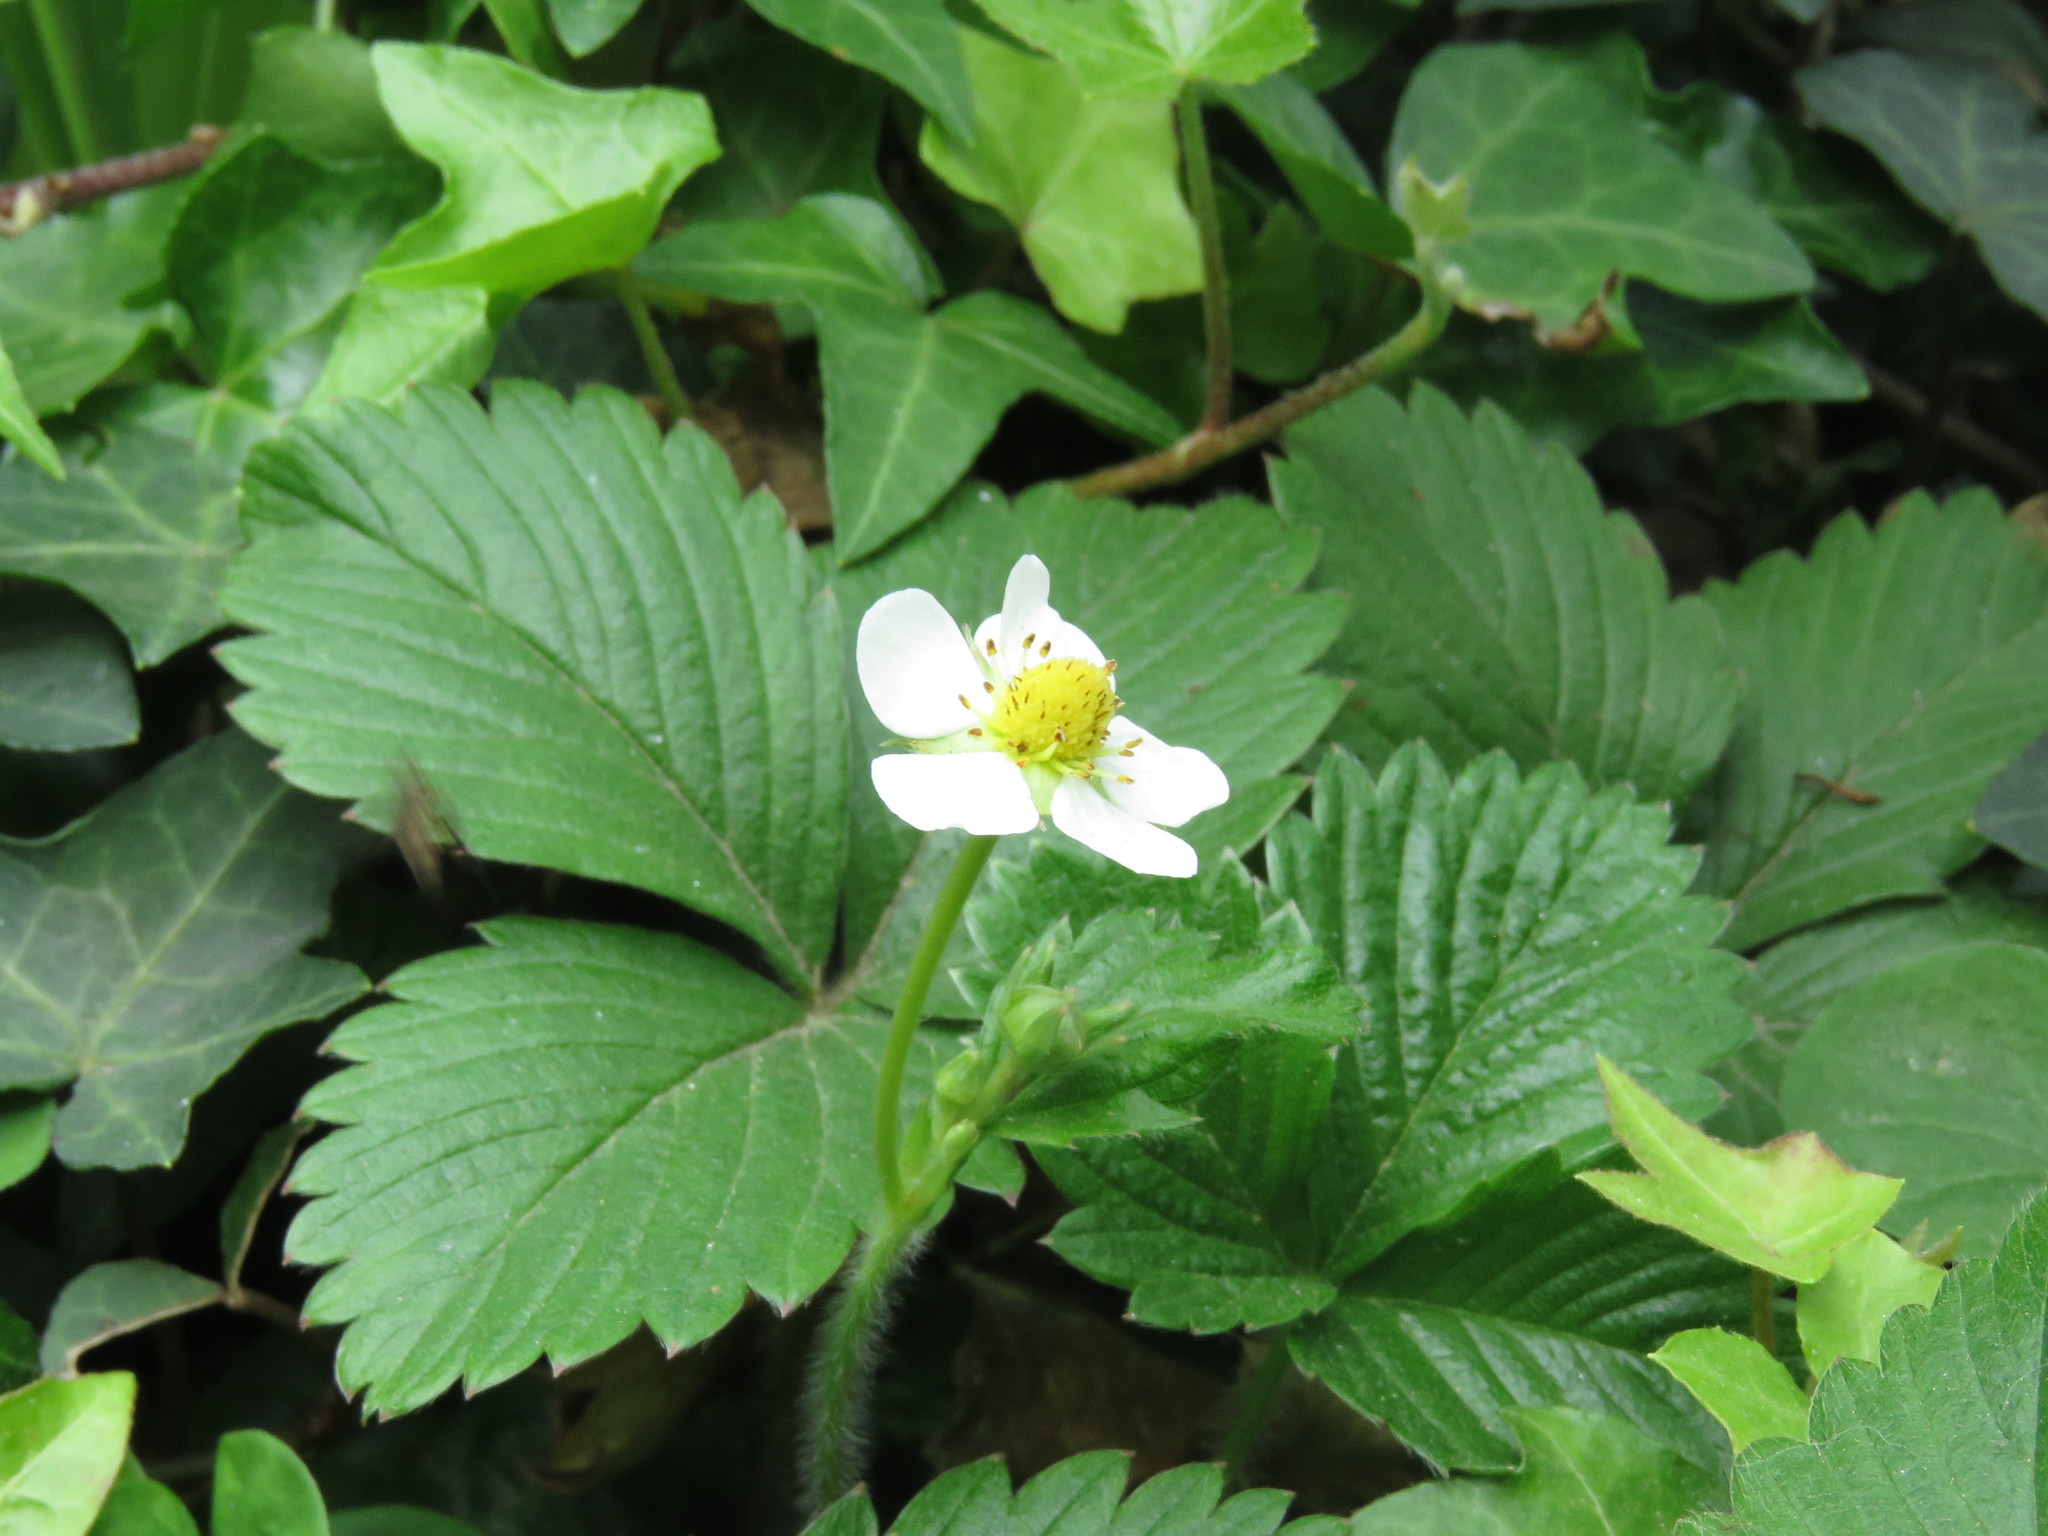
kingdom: Plantae
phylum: Tracheophyta
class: Magnoliopsida
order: Rosales
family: Rosaceae
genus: Fragaria
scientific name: Fragaria vesca
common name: Wild strawberry
